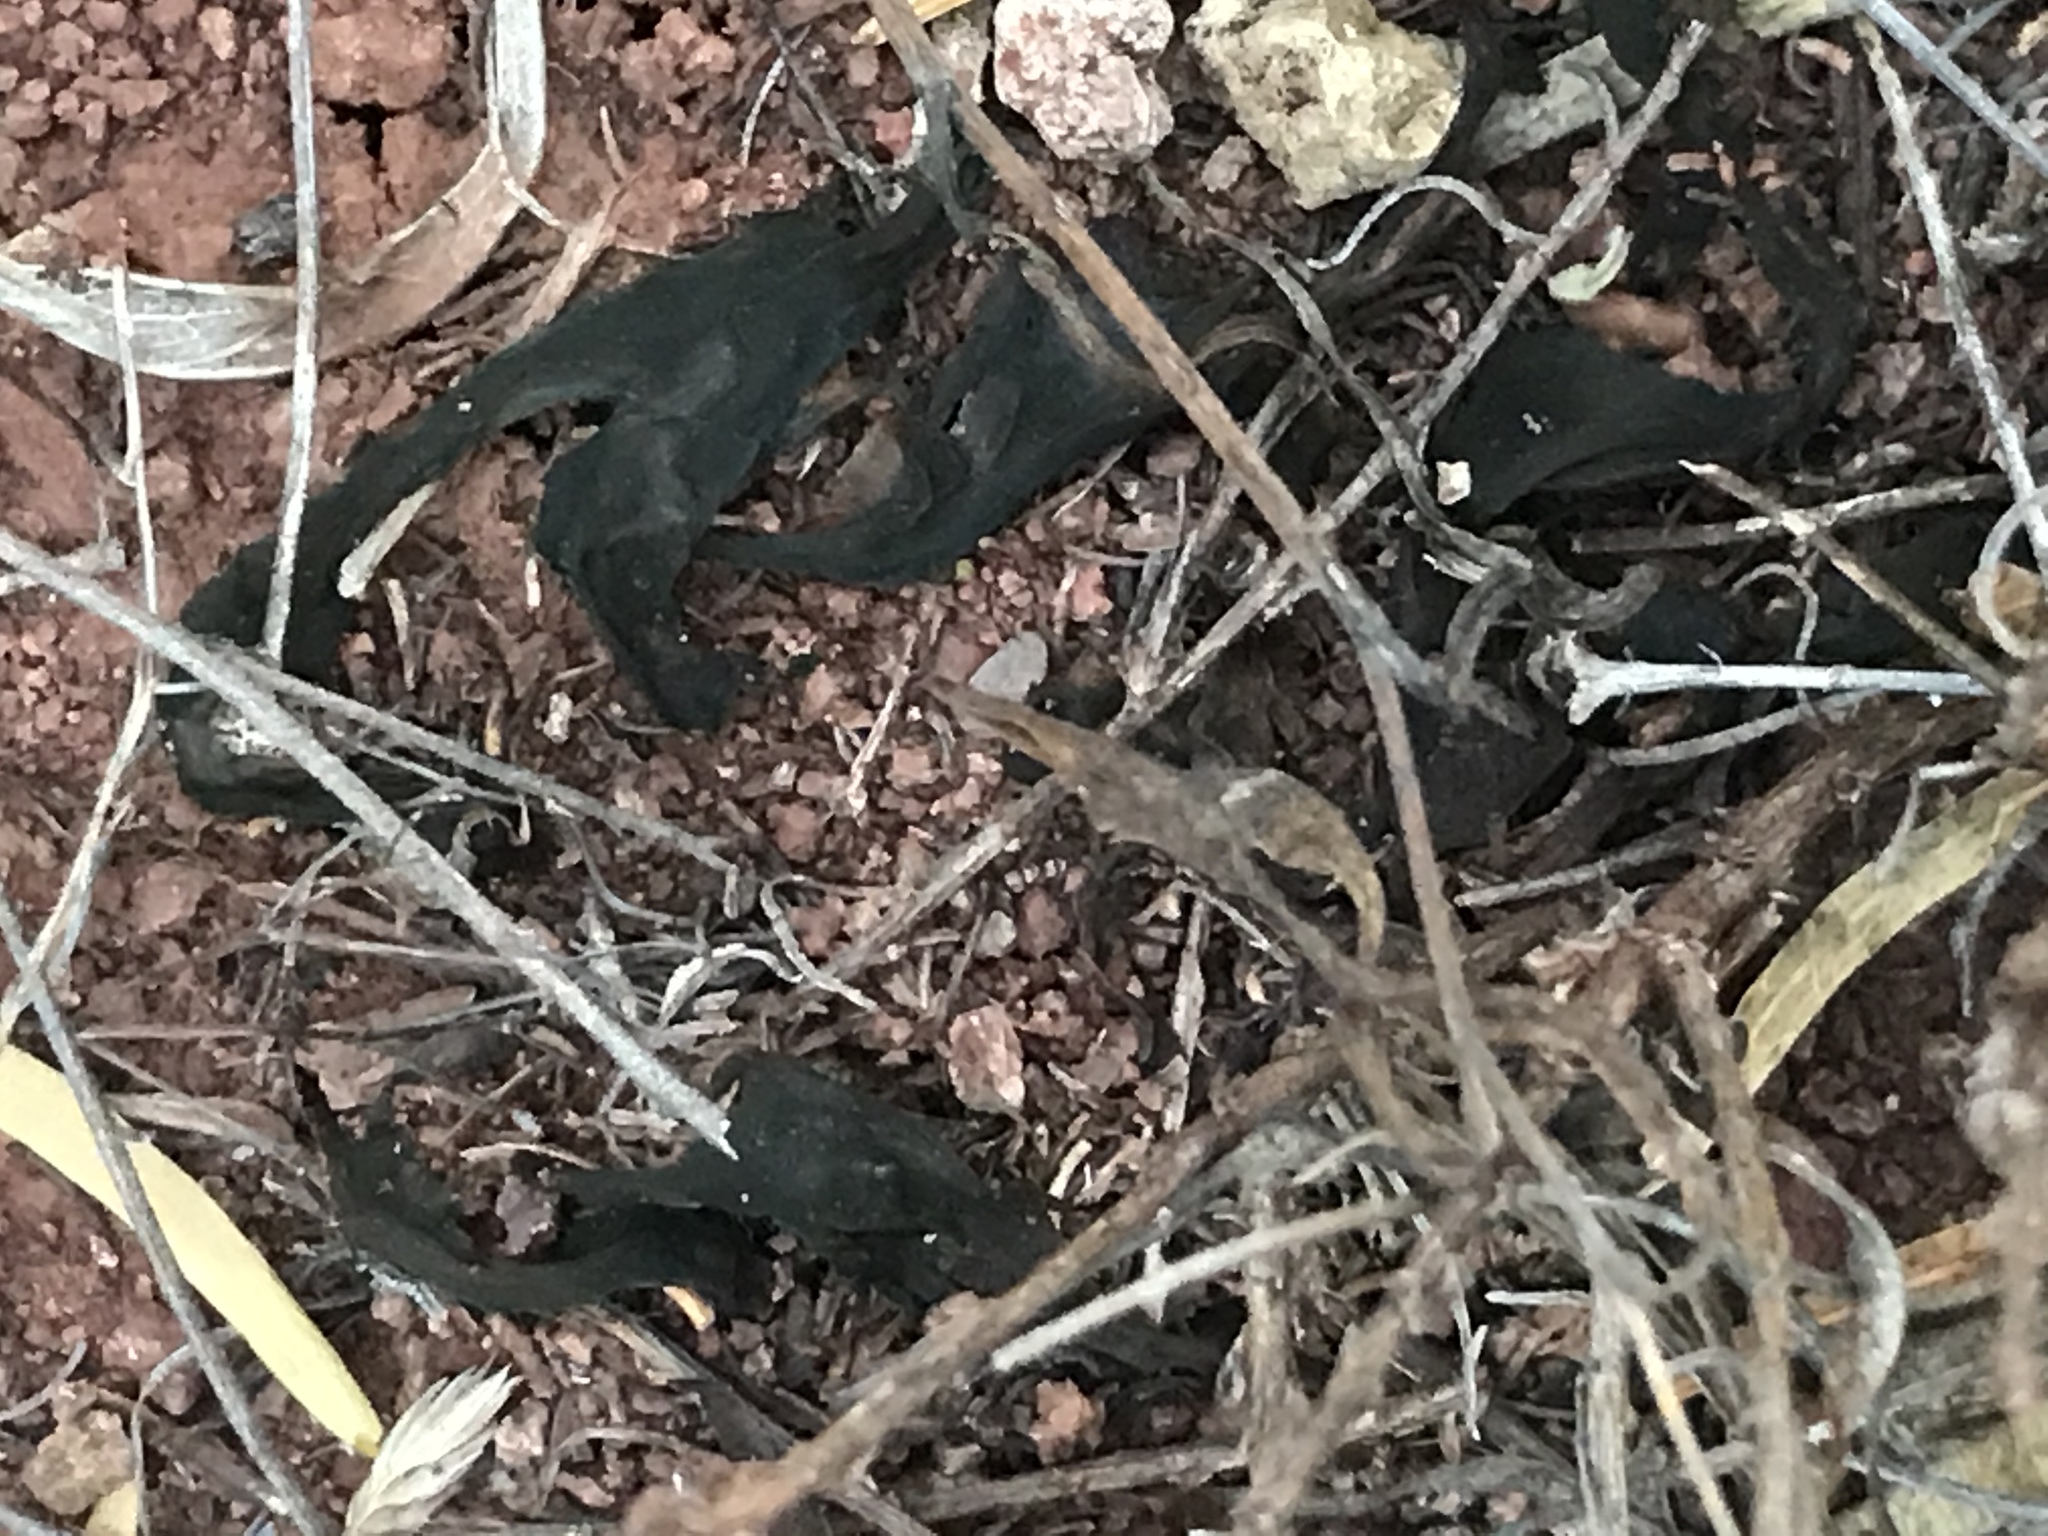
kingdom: Bacteria
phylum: Cyanobacteria
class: Cyanobacteriia
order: Cyanobacteriales
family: Nostocaceae
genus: Nostoc
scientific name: Nostoc commune
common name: Star jelly
